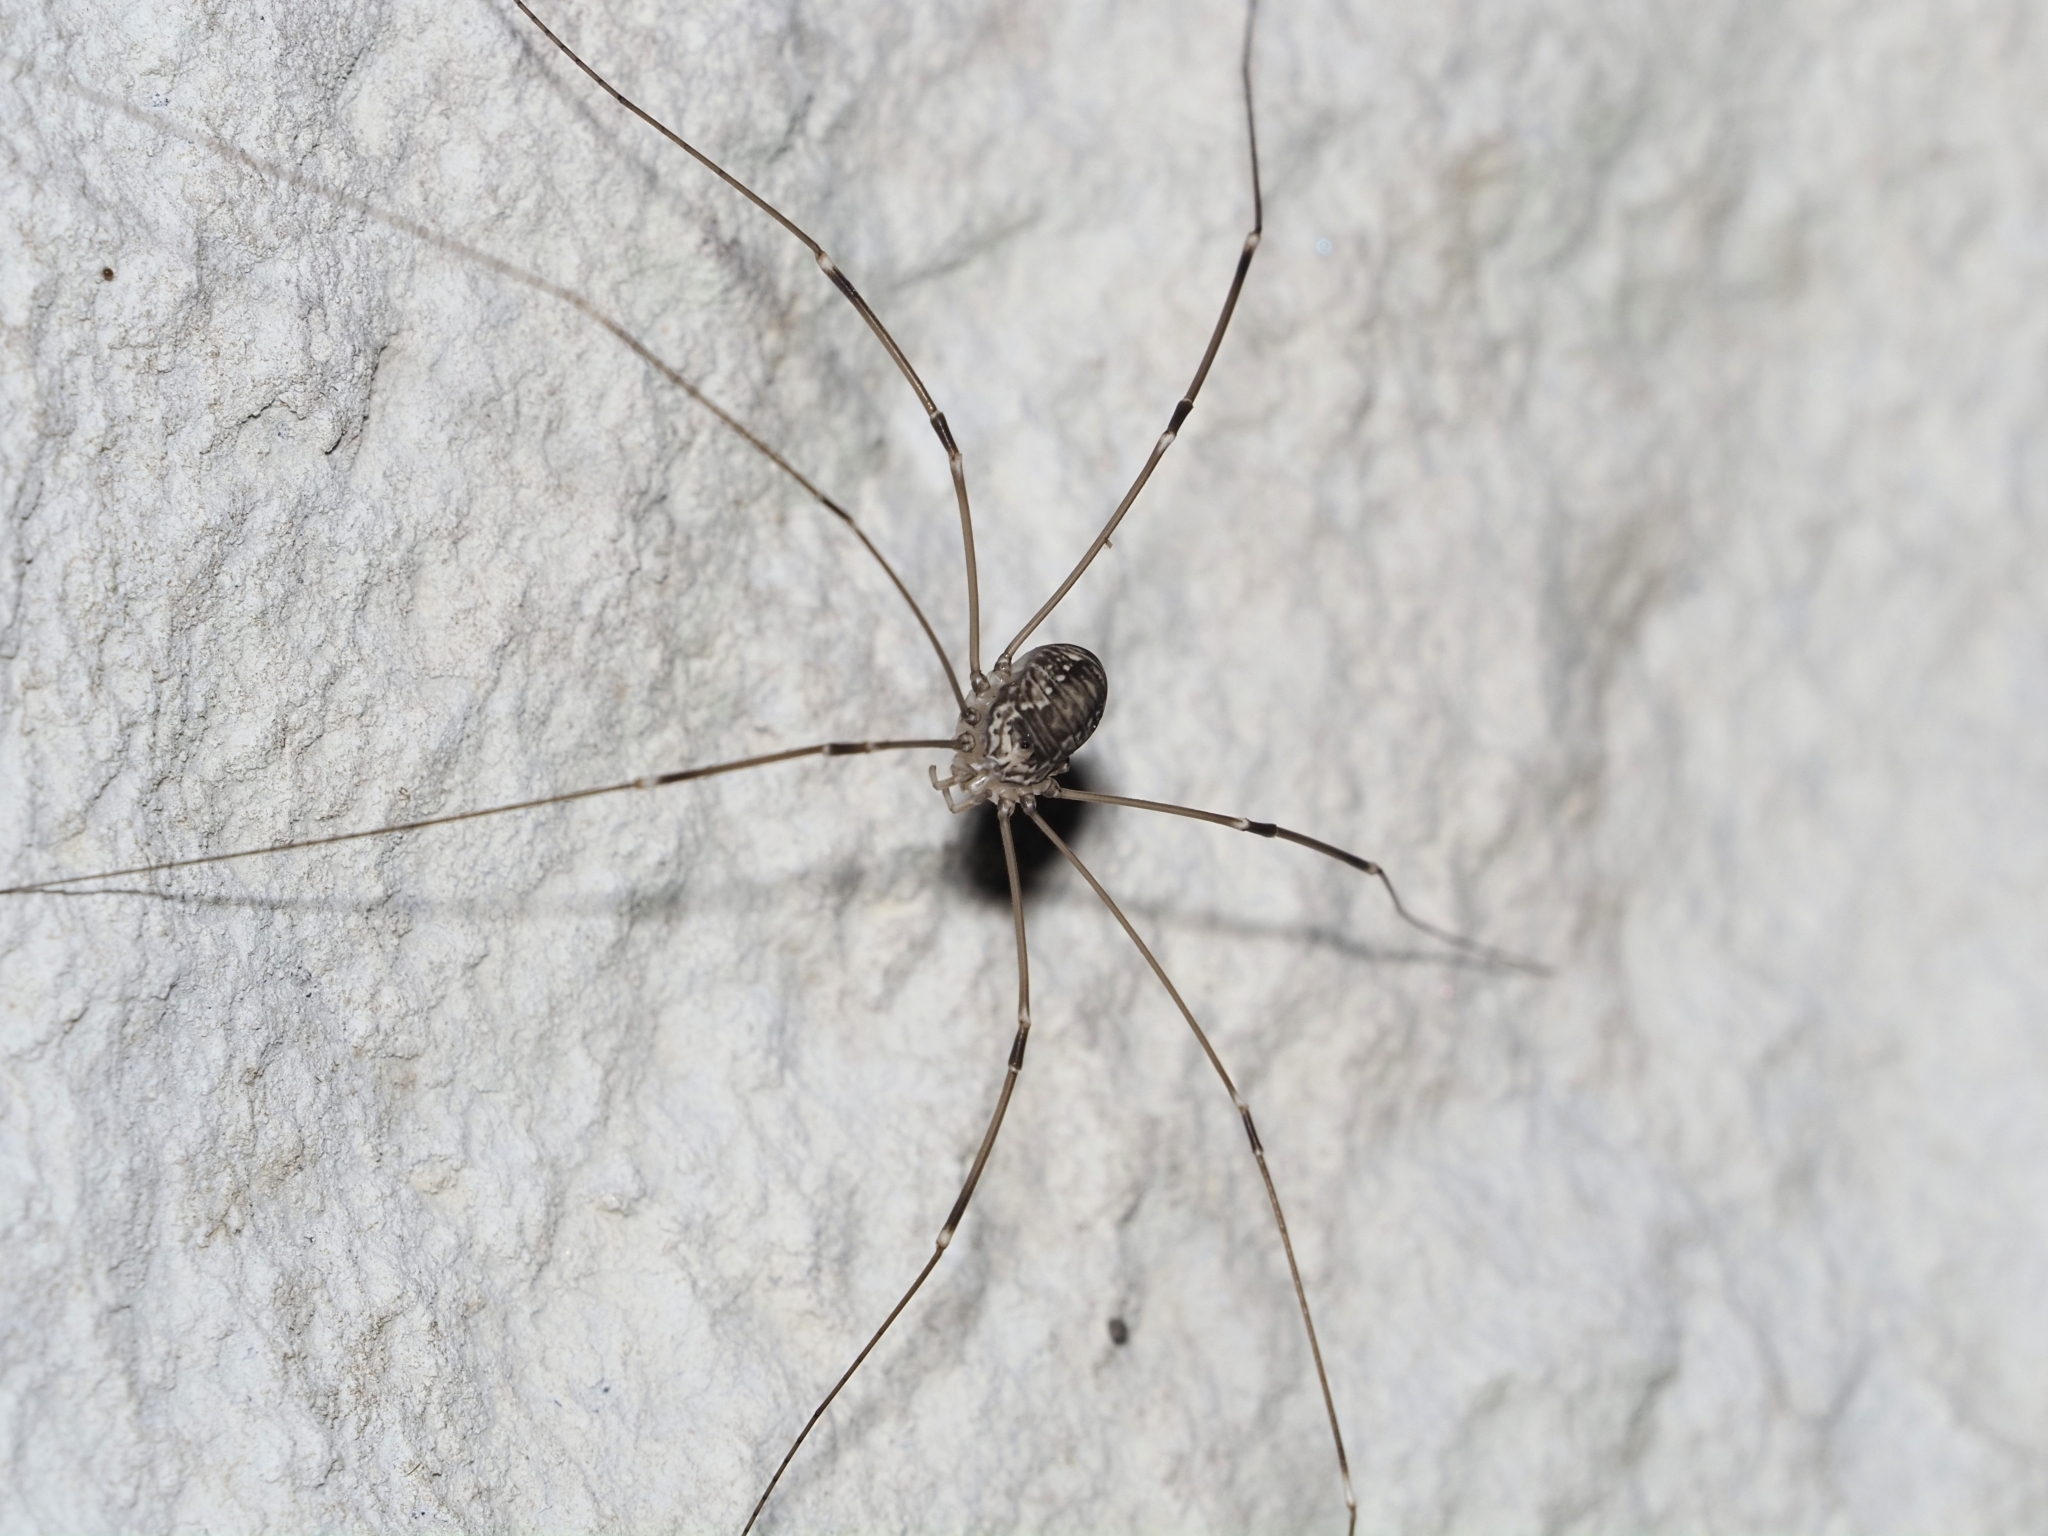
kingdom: Animalia
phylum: Arthropoda
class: Arachnida
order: Opiliones
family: Sclerosomatidae
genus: Leiobunum
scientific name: Leiobunum limbatum
